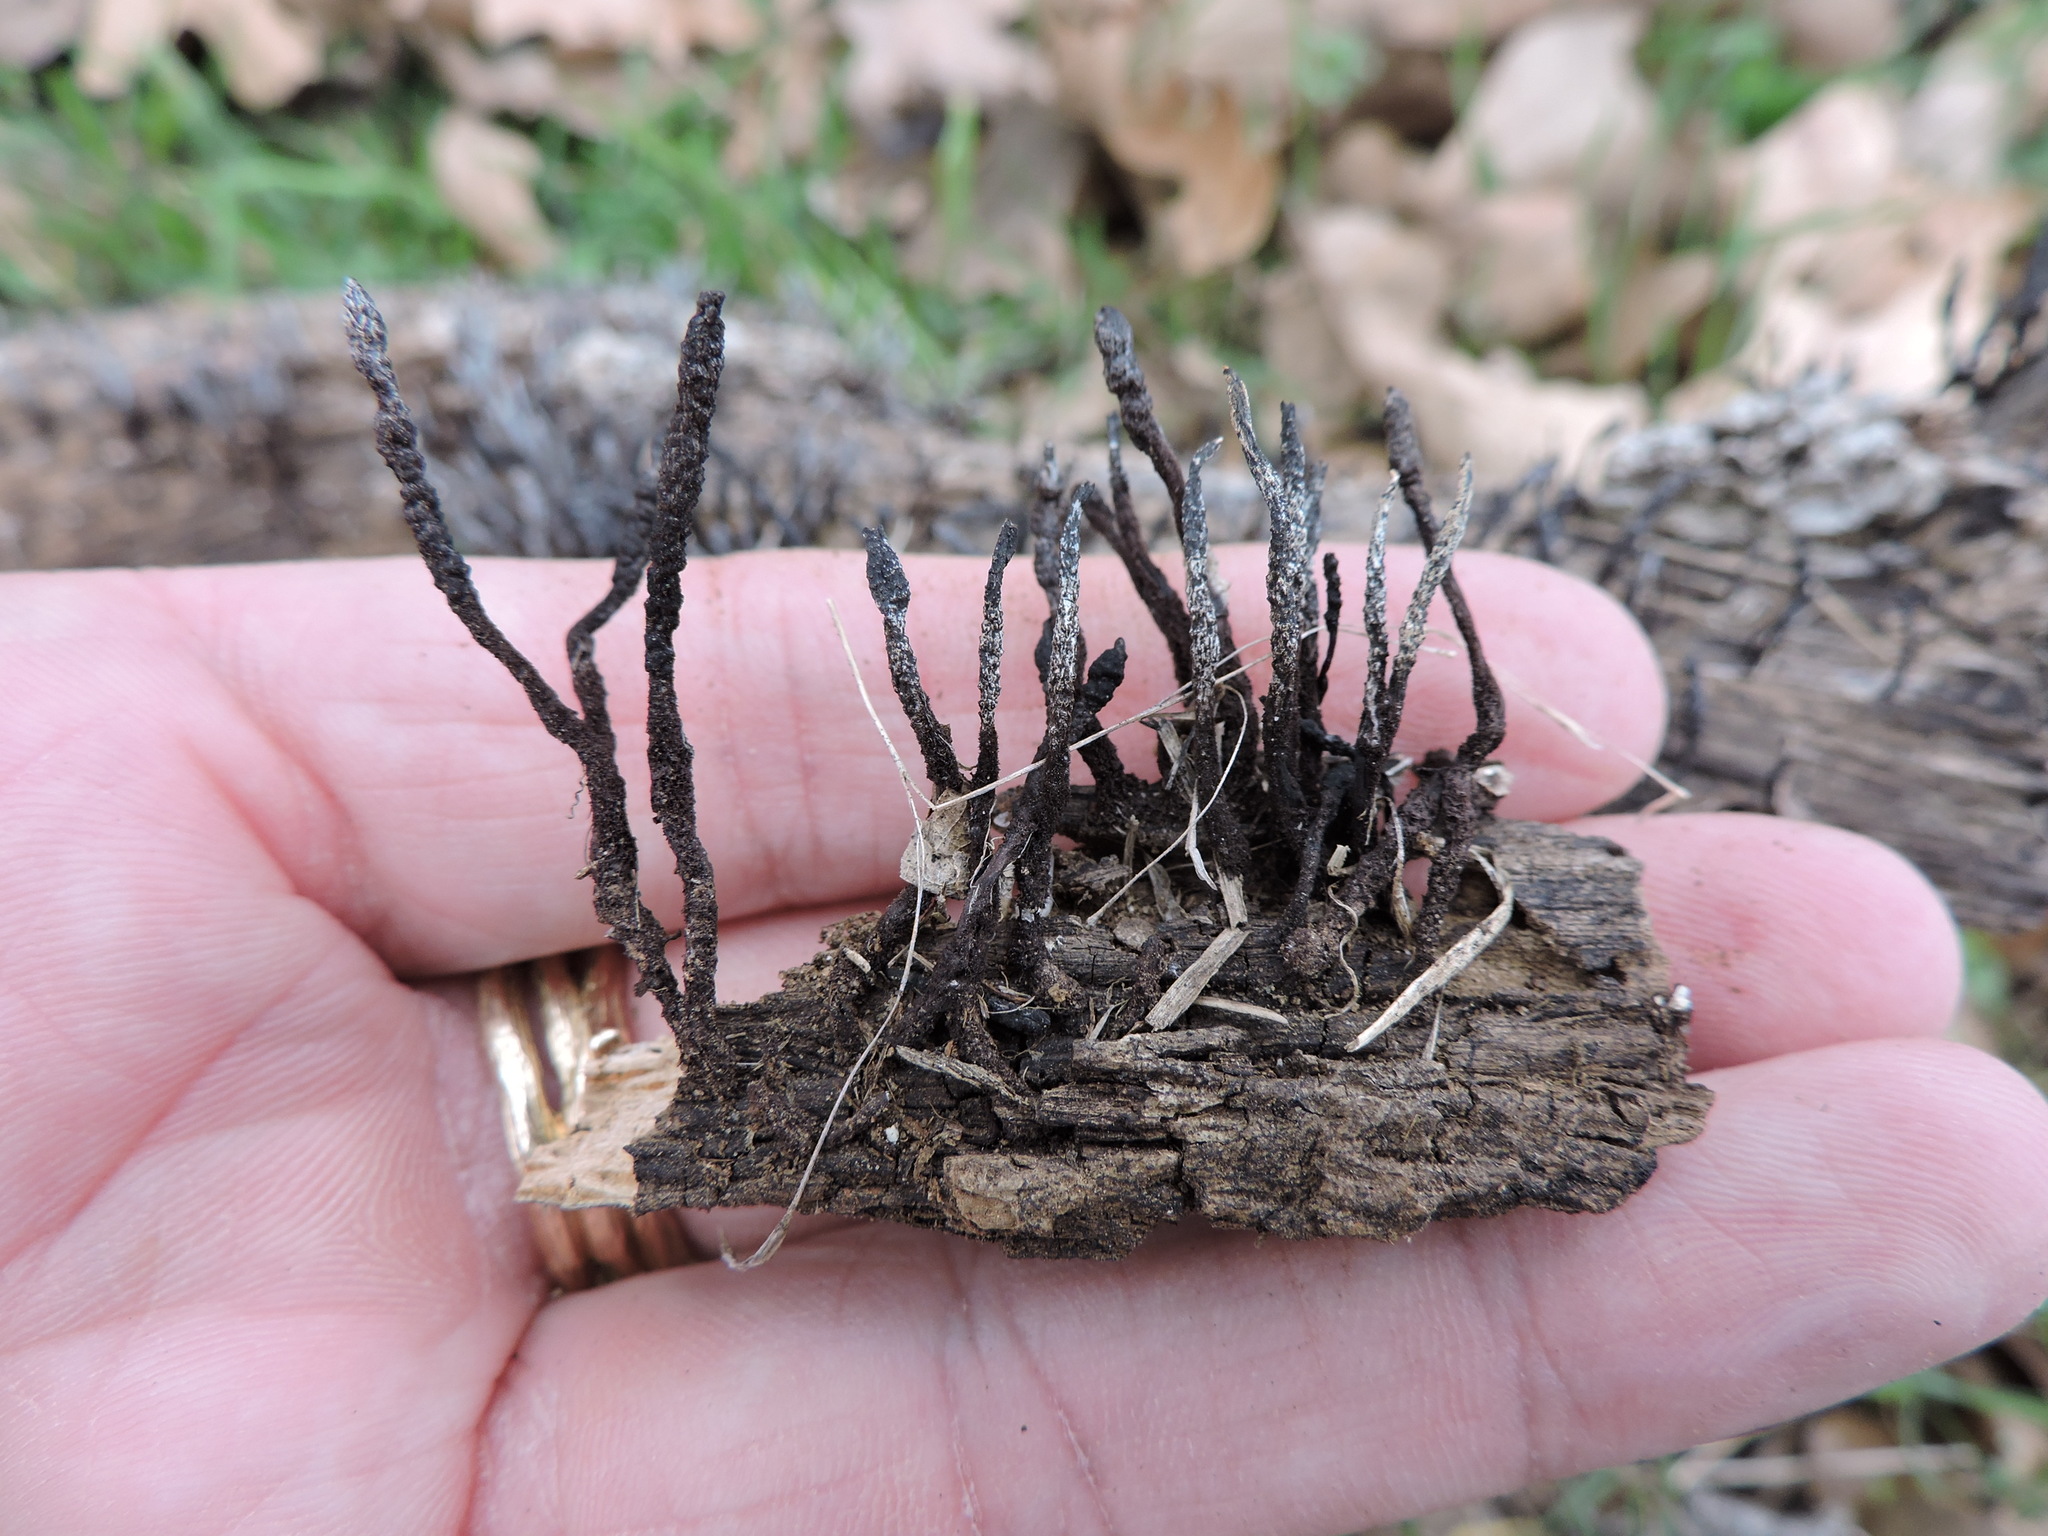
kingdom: Fungi
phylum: Ascomycota
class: Sordariomycetes
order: Xylariales
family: Xylariaceae
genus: Xylaria
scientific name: Xylaria
